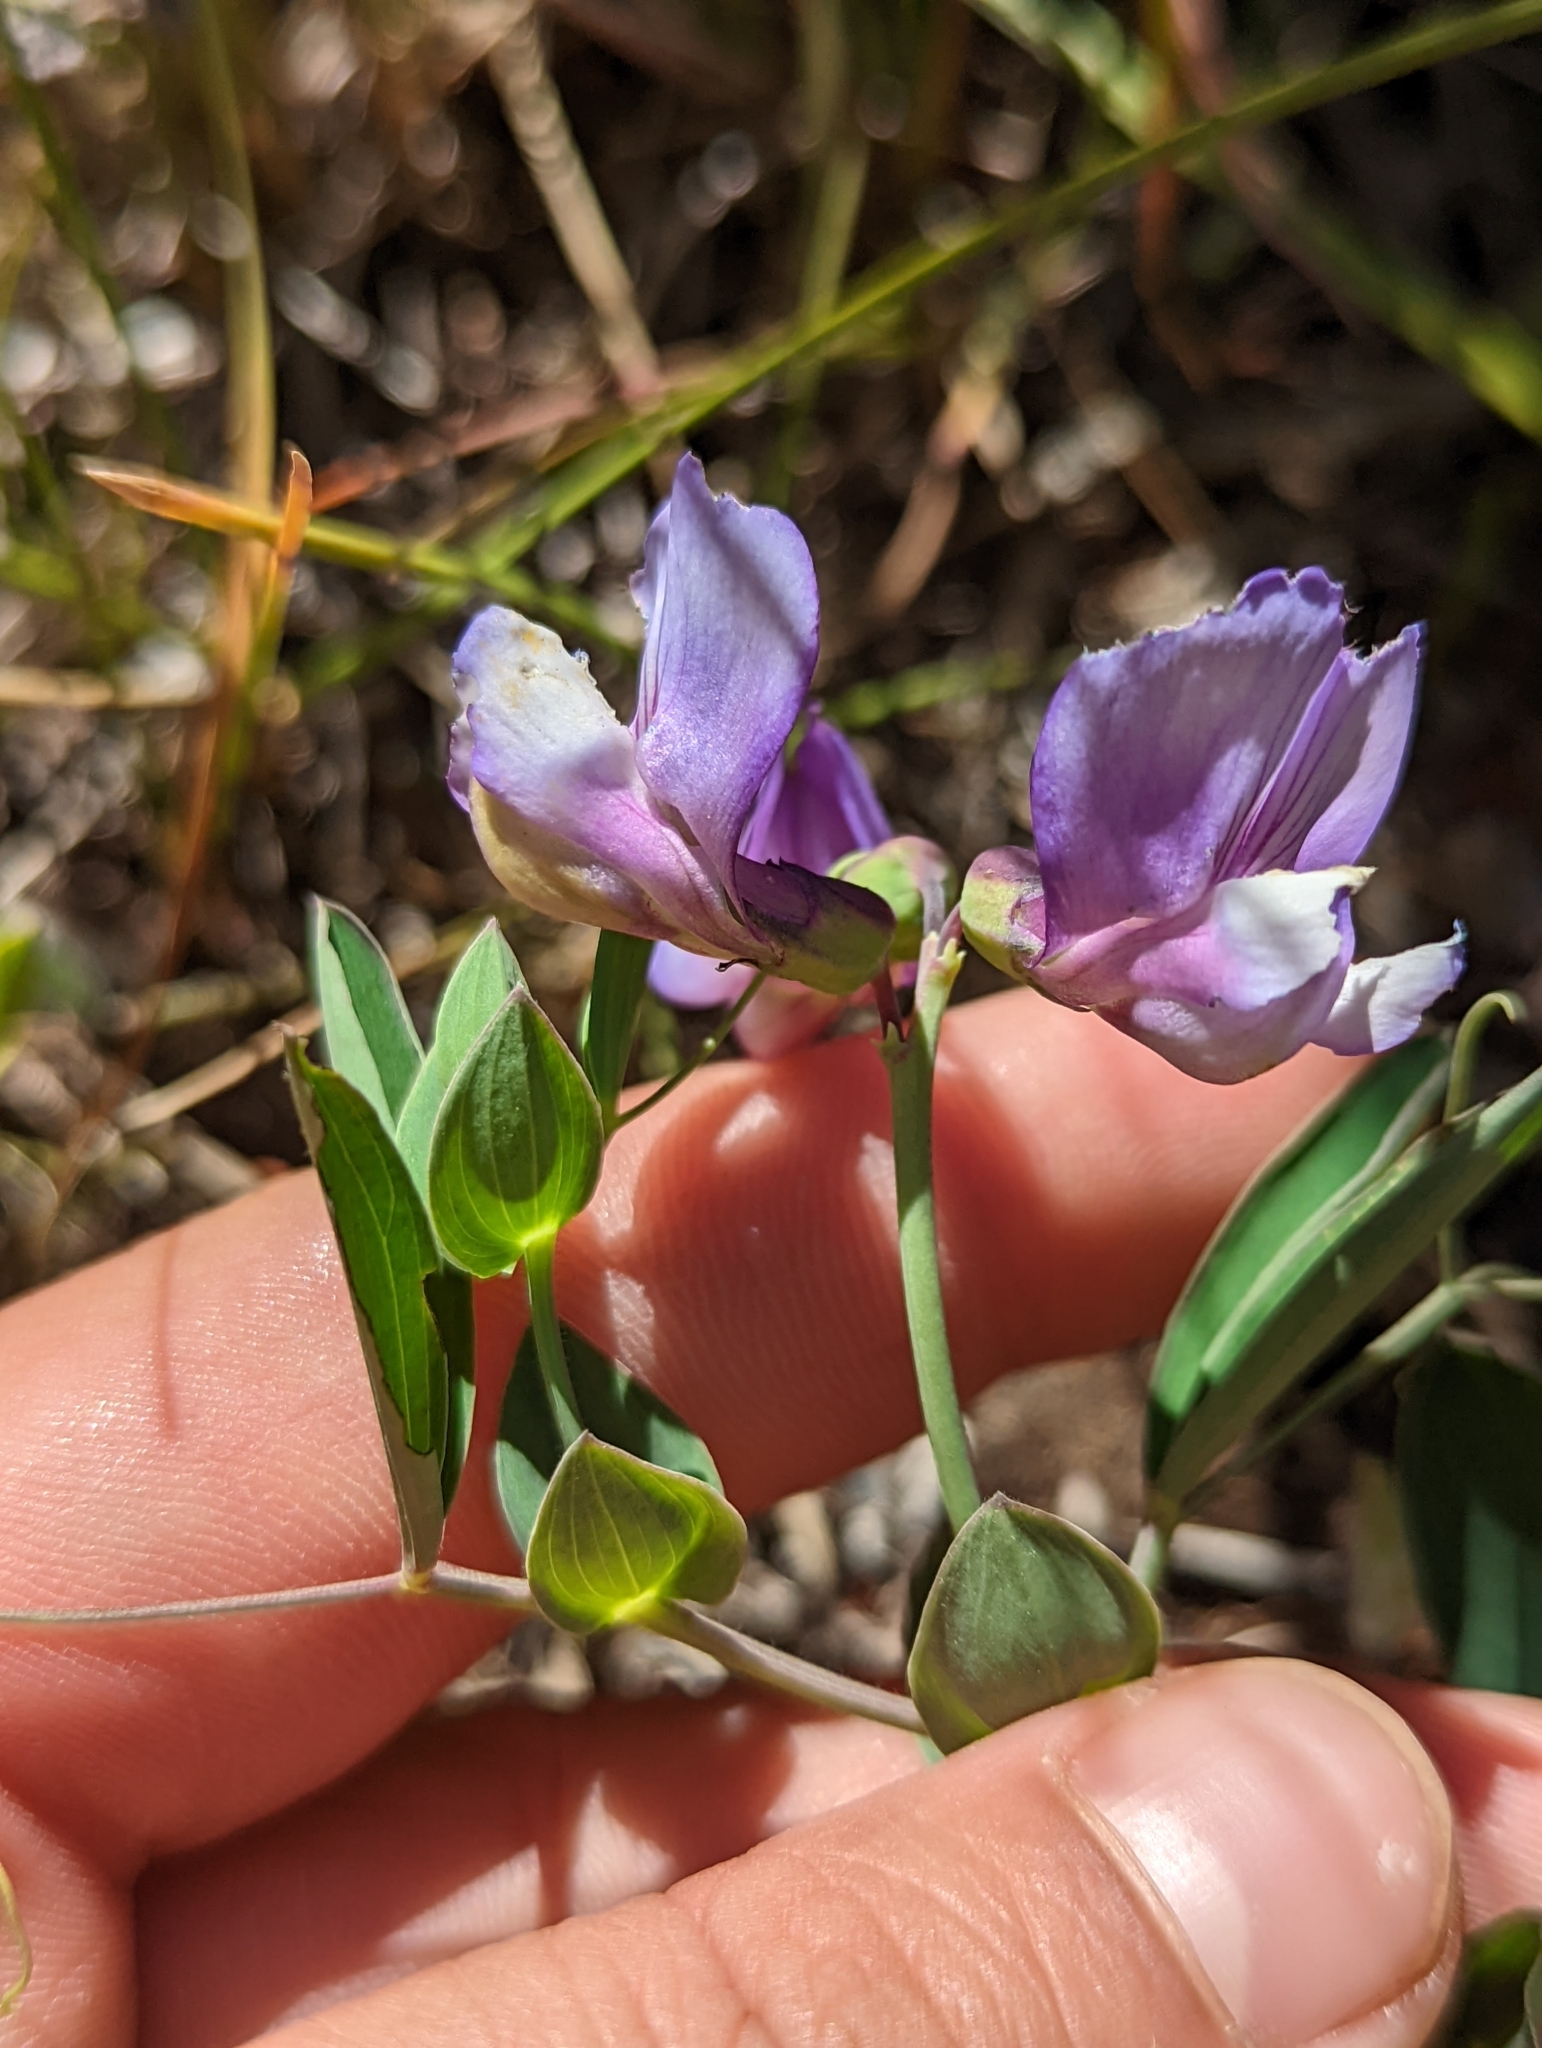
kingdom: Plantae
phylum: Tracheophyta
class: Magnoliopsida
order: Fabales
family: Fabaceae
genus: Lathyrus
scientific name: Lathyrus magellanicus
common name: Lord anson's pea
